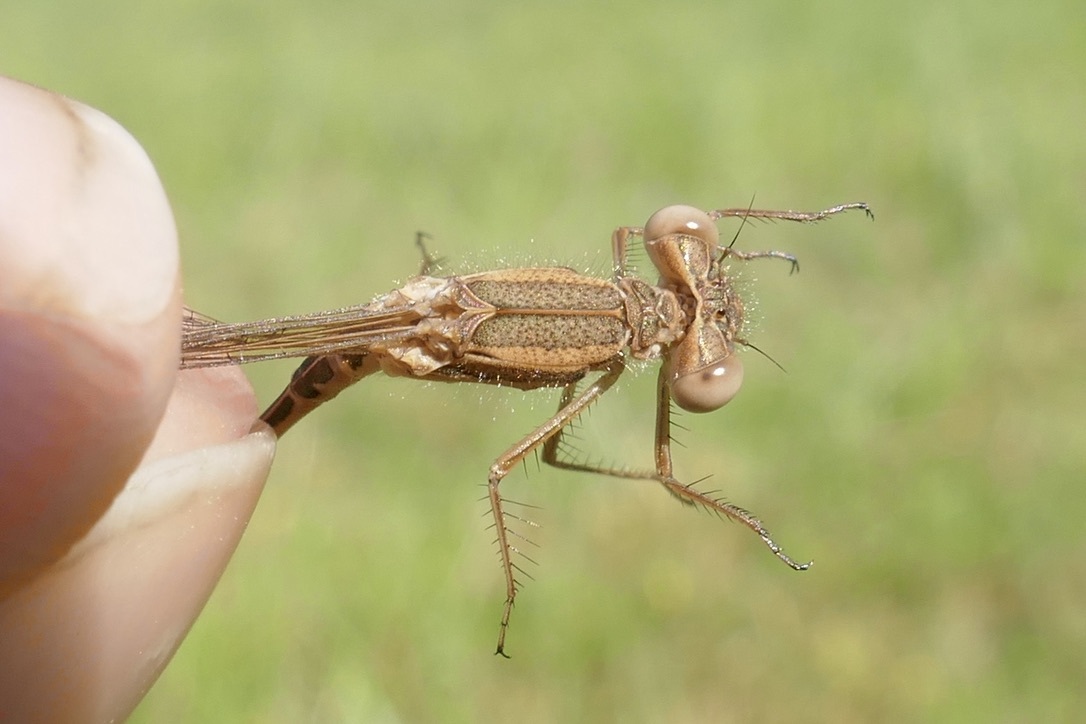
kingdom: Animalia
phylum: Arthropoda
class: Insecta
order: Odonata
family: Lestidae
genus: Sympecma
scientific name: Sympecma fusca
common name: Common winter damsel
